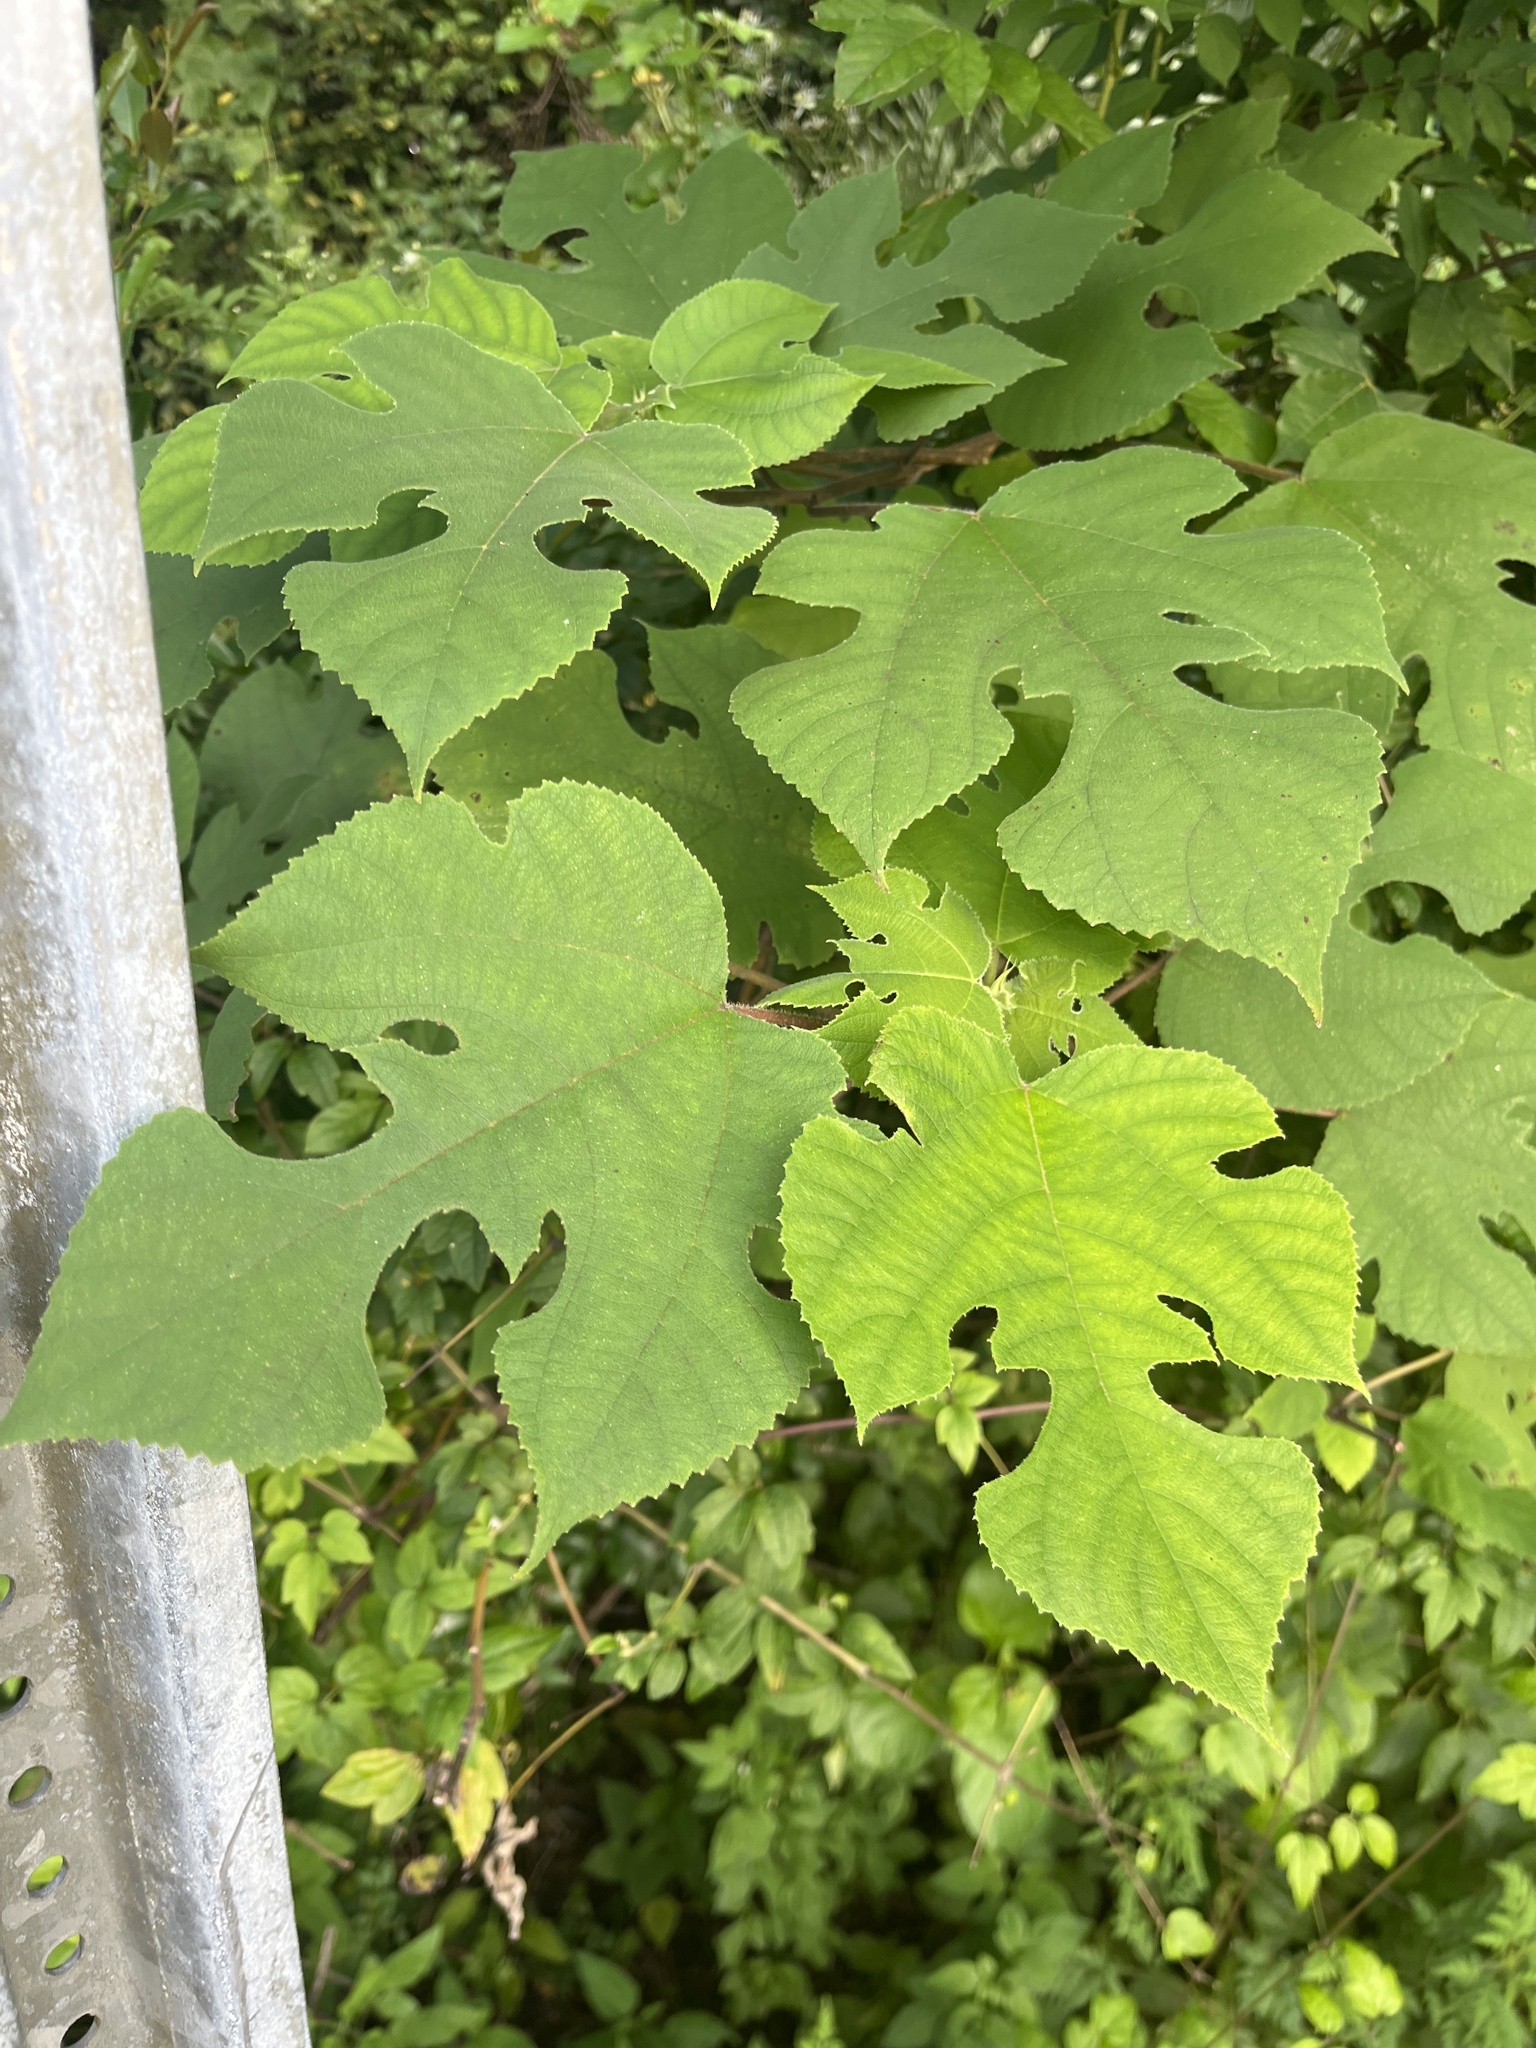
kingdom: Plantae
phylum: Tracheophyta
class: Magnoliopsida
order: Rosales
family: Moraceae
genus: Broussonetia
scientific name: Broussonetia papyrifera
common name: Paper mulberry
